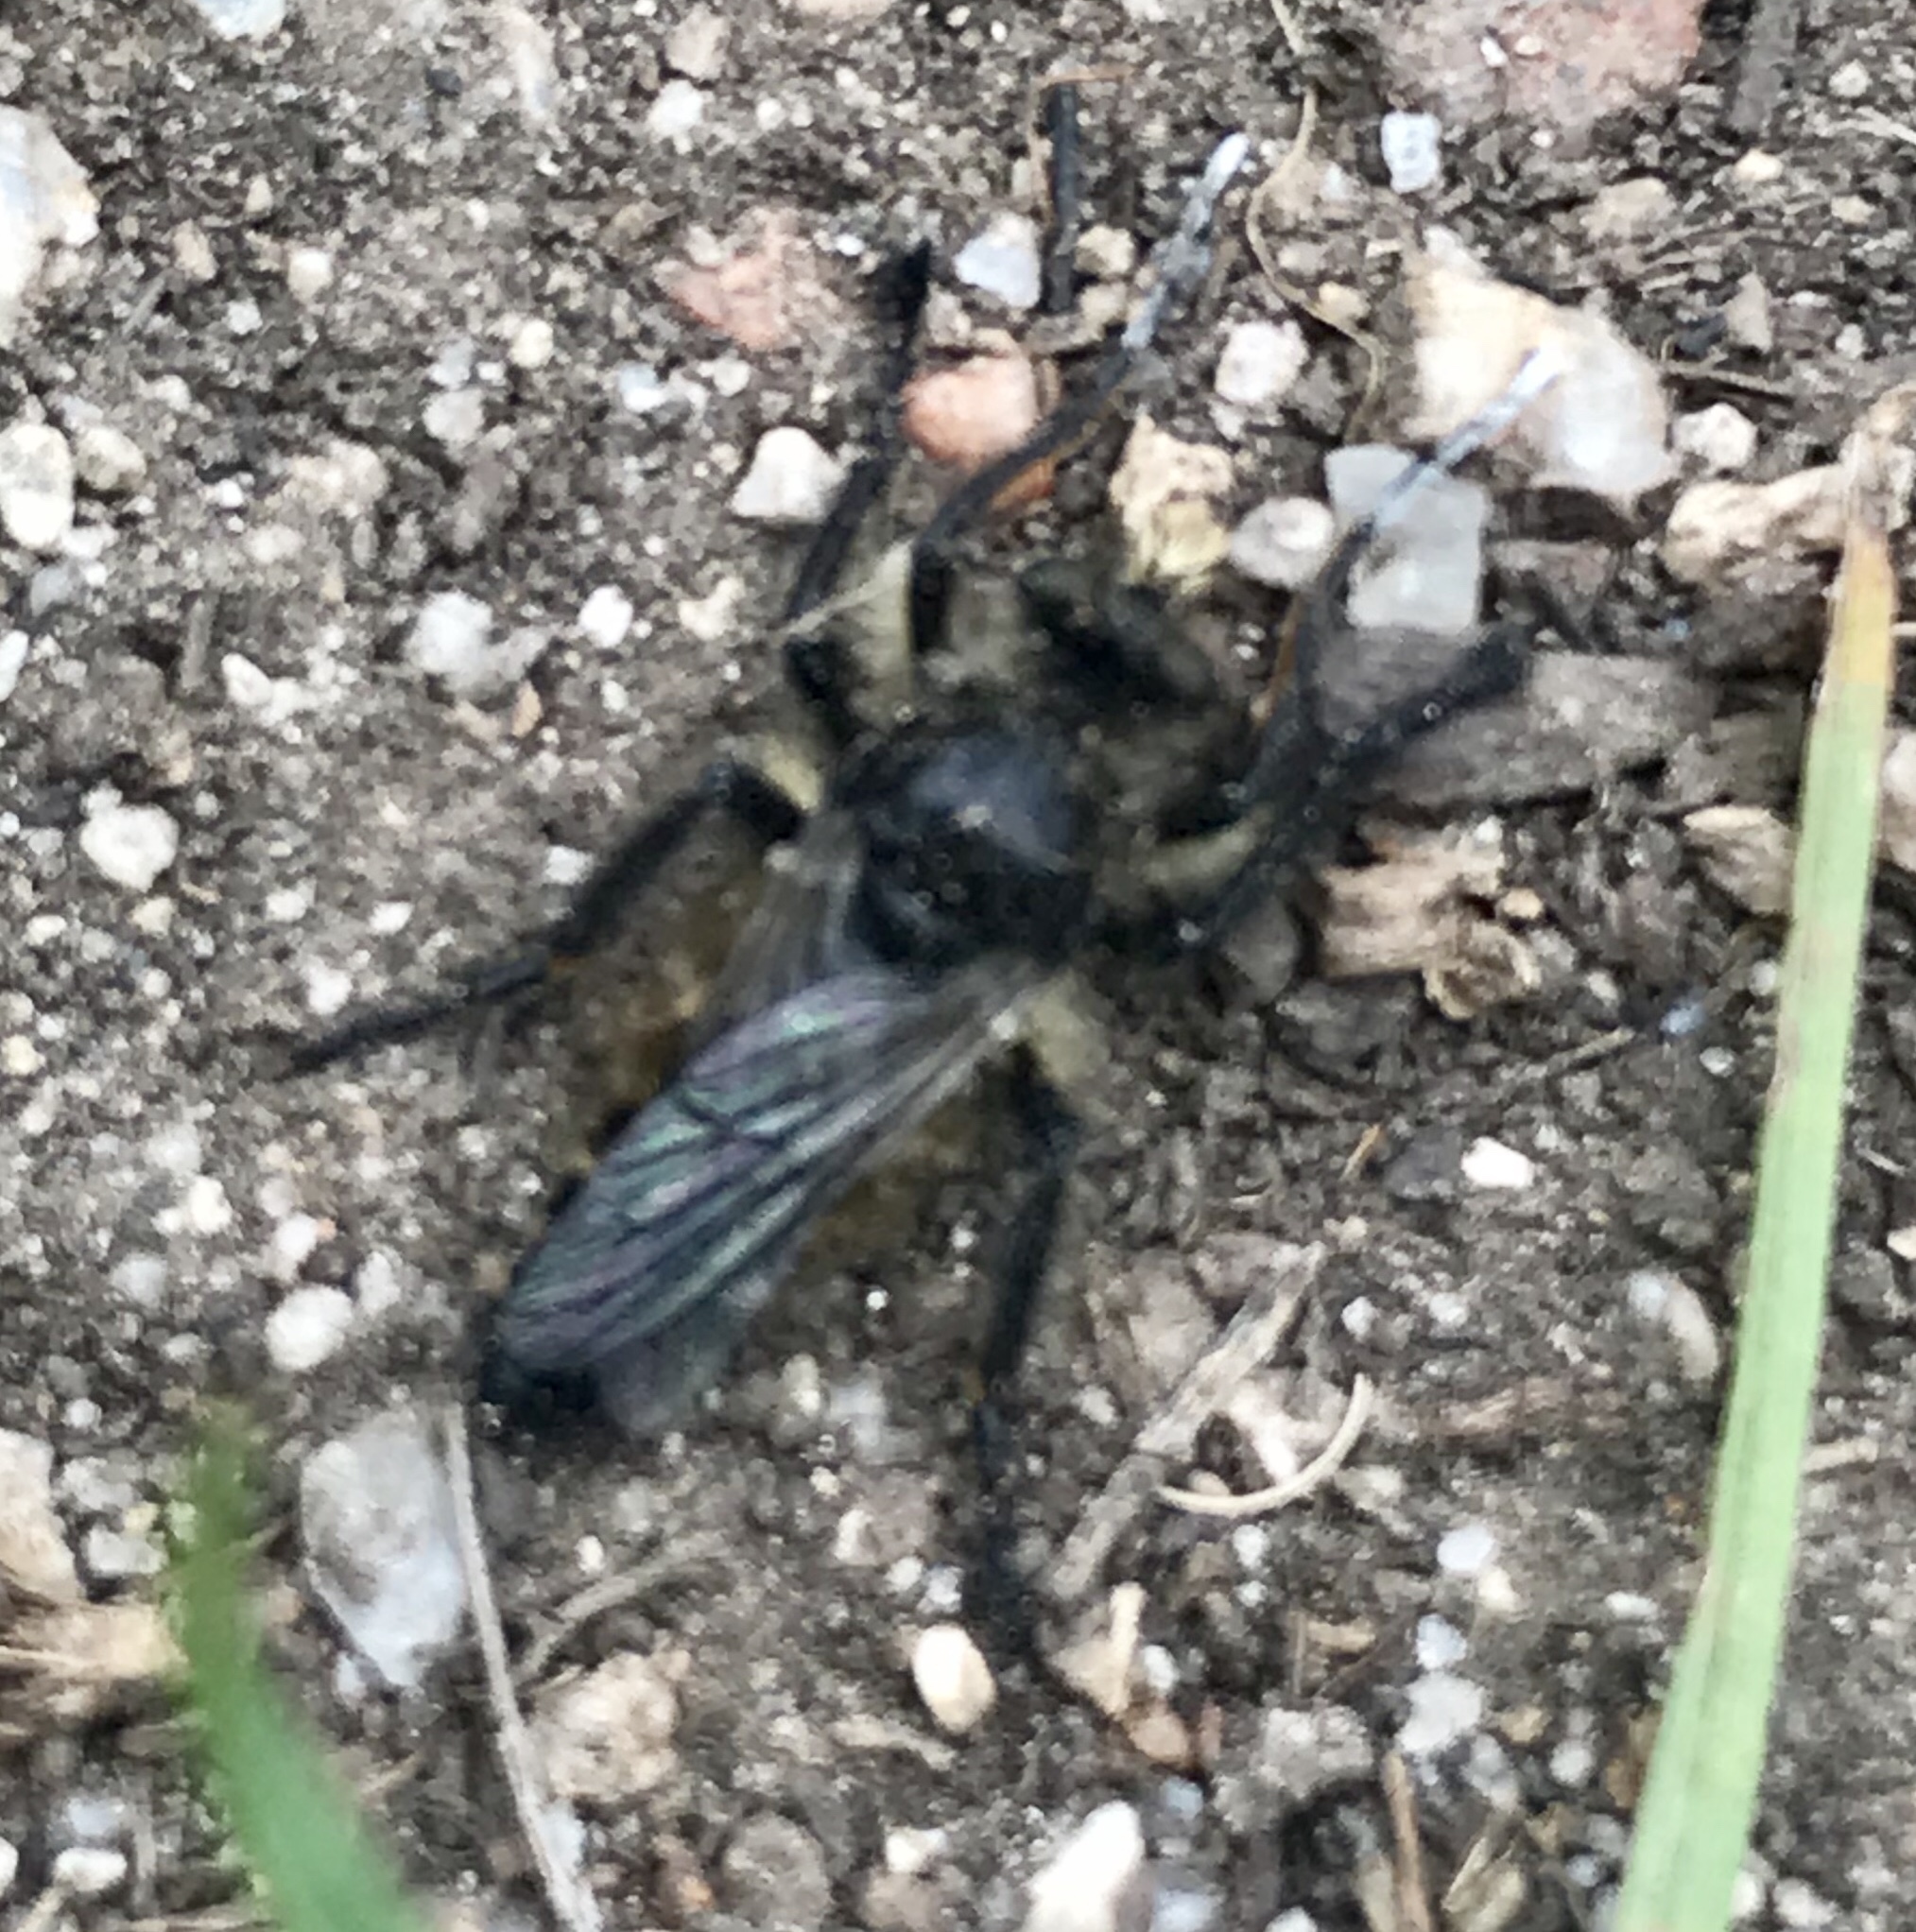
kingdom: Animalia
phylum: Arthropoda
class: Insecta
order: Diptera
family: Asilidae
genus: Cyrtopogon
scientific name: Cyrtopogon willistoni
